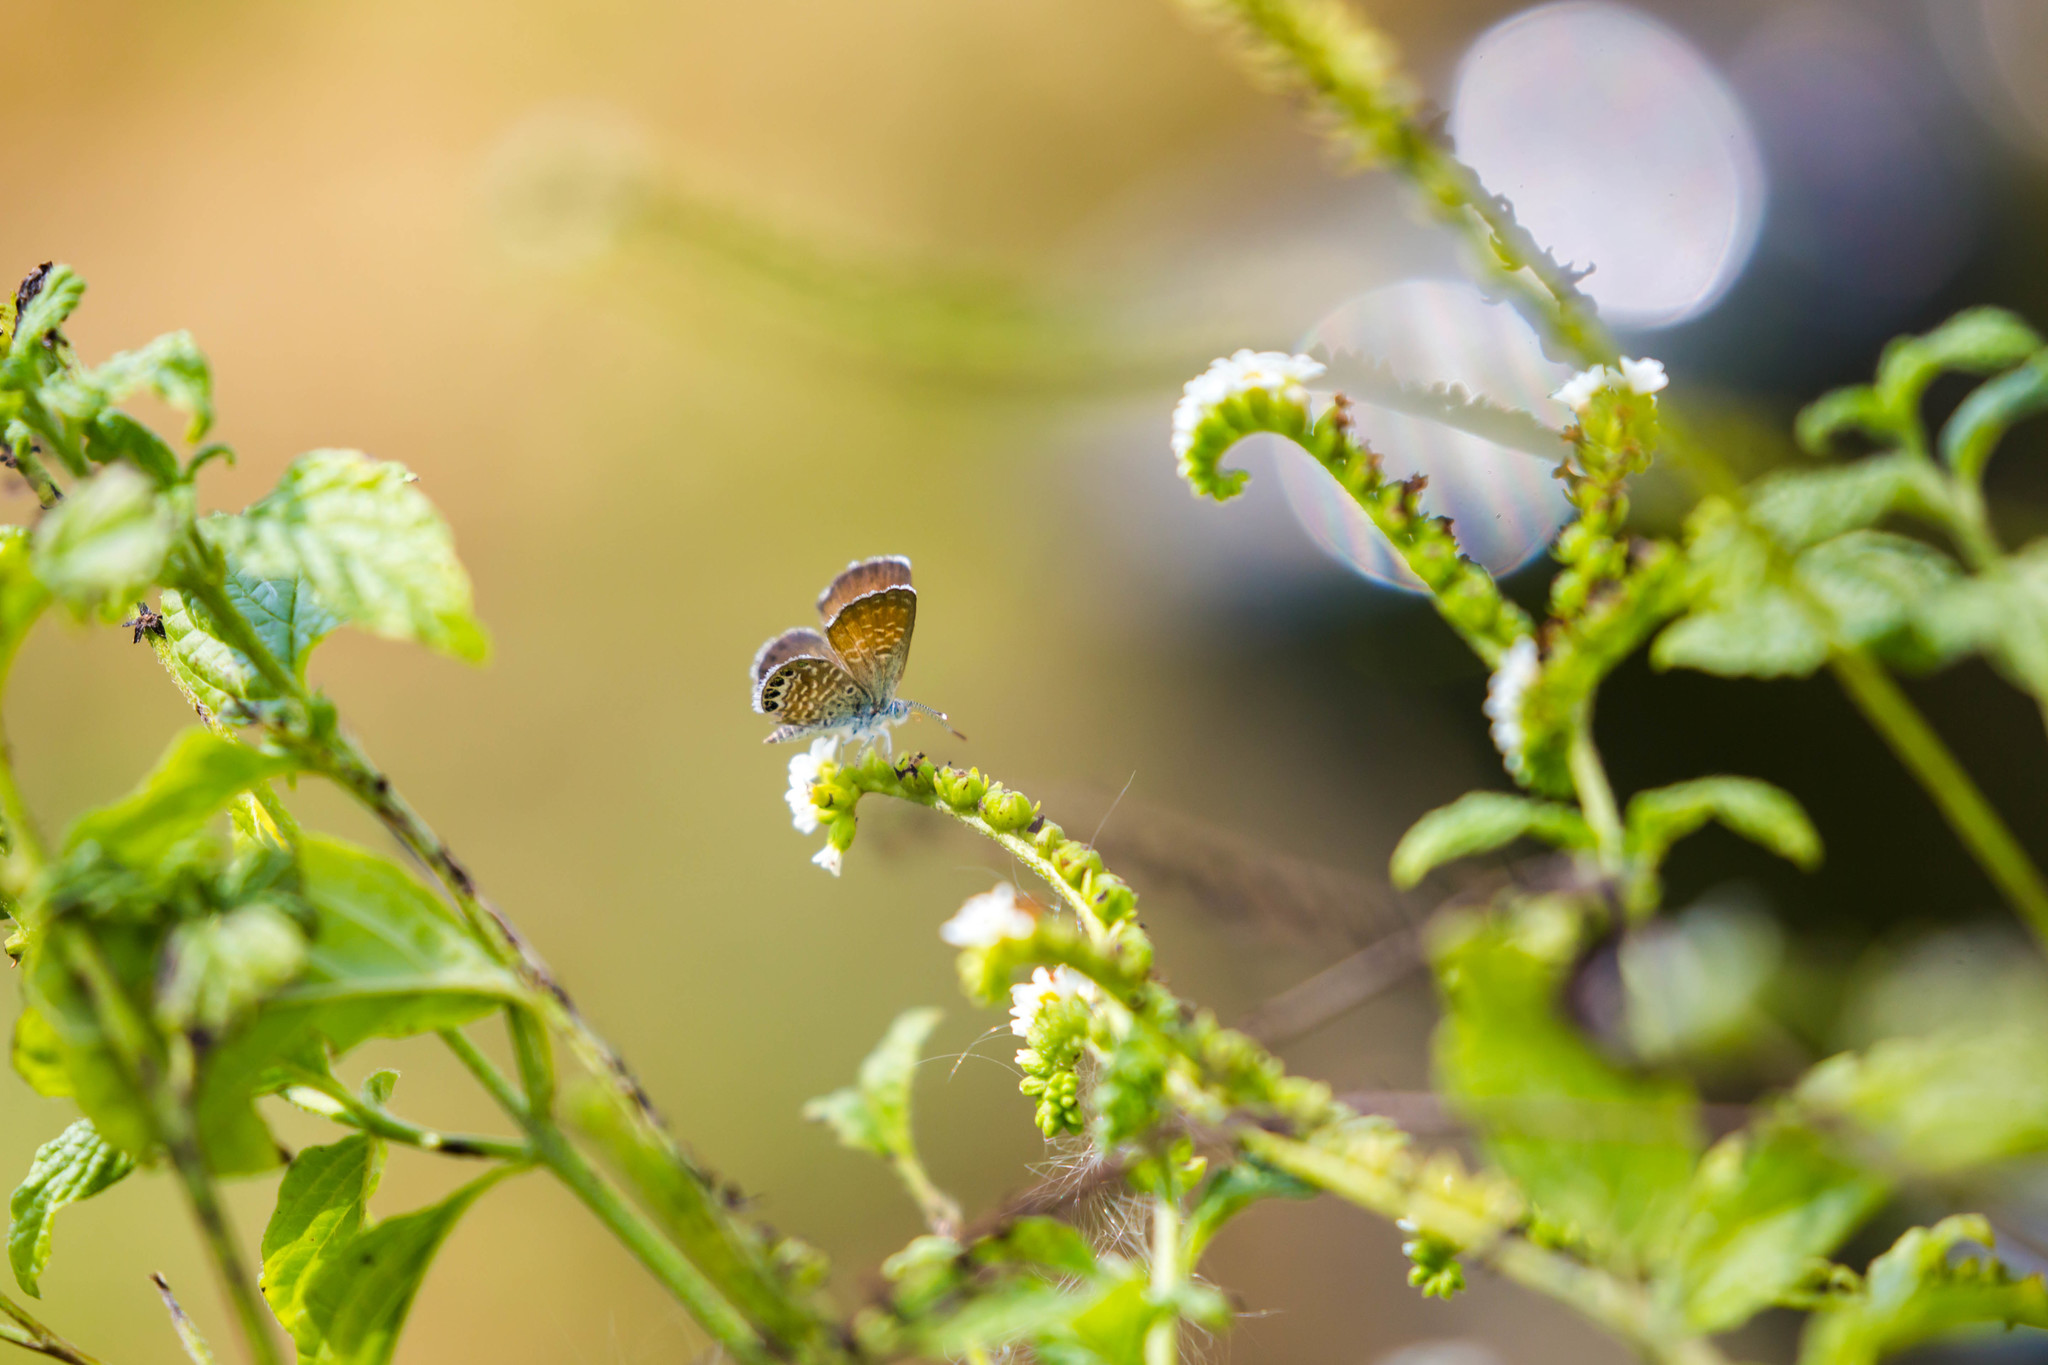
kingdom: Animalia
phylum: Arthropoda
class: Insecta
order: Lepidoptera
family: Lycaenidae
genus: Brephidium
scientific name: Brephidium exilis
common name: Pygmy blue
